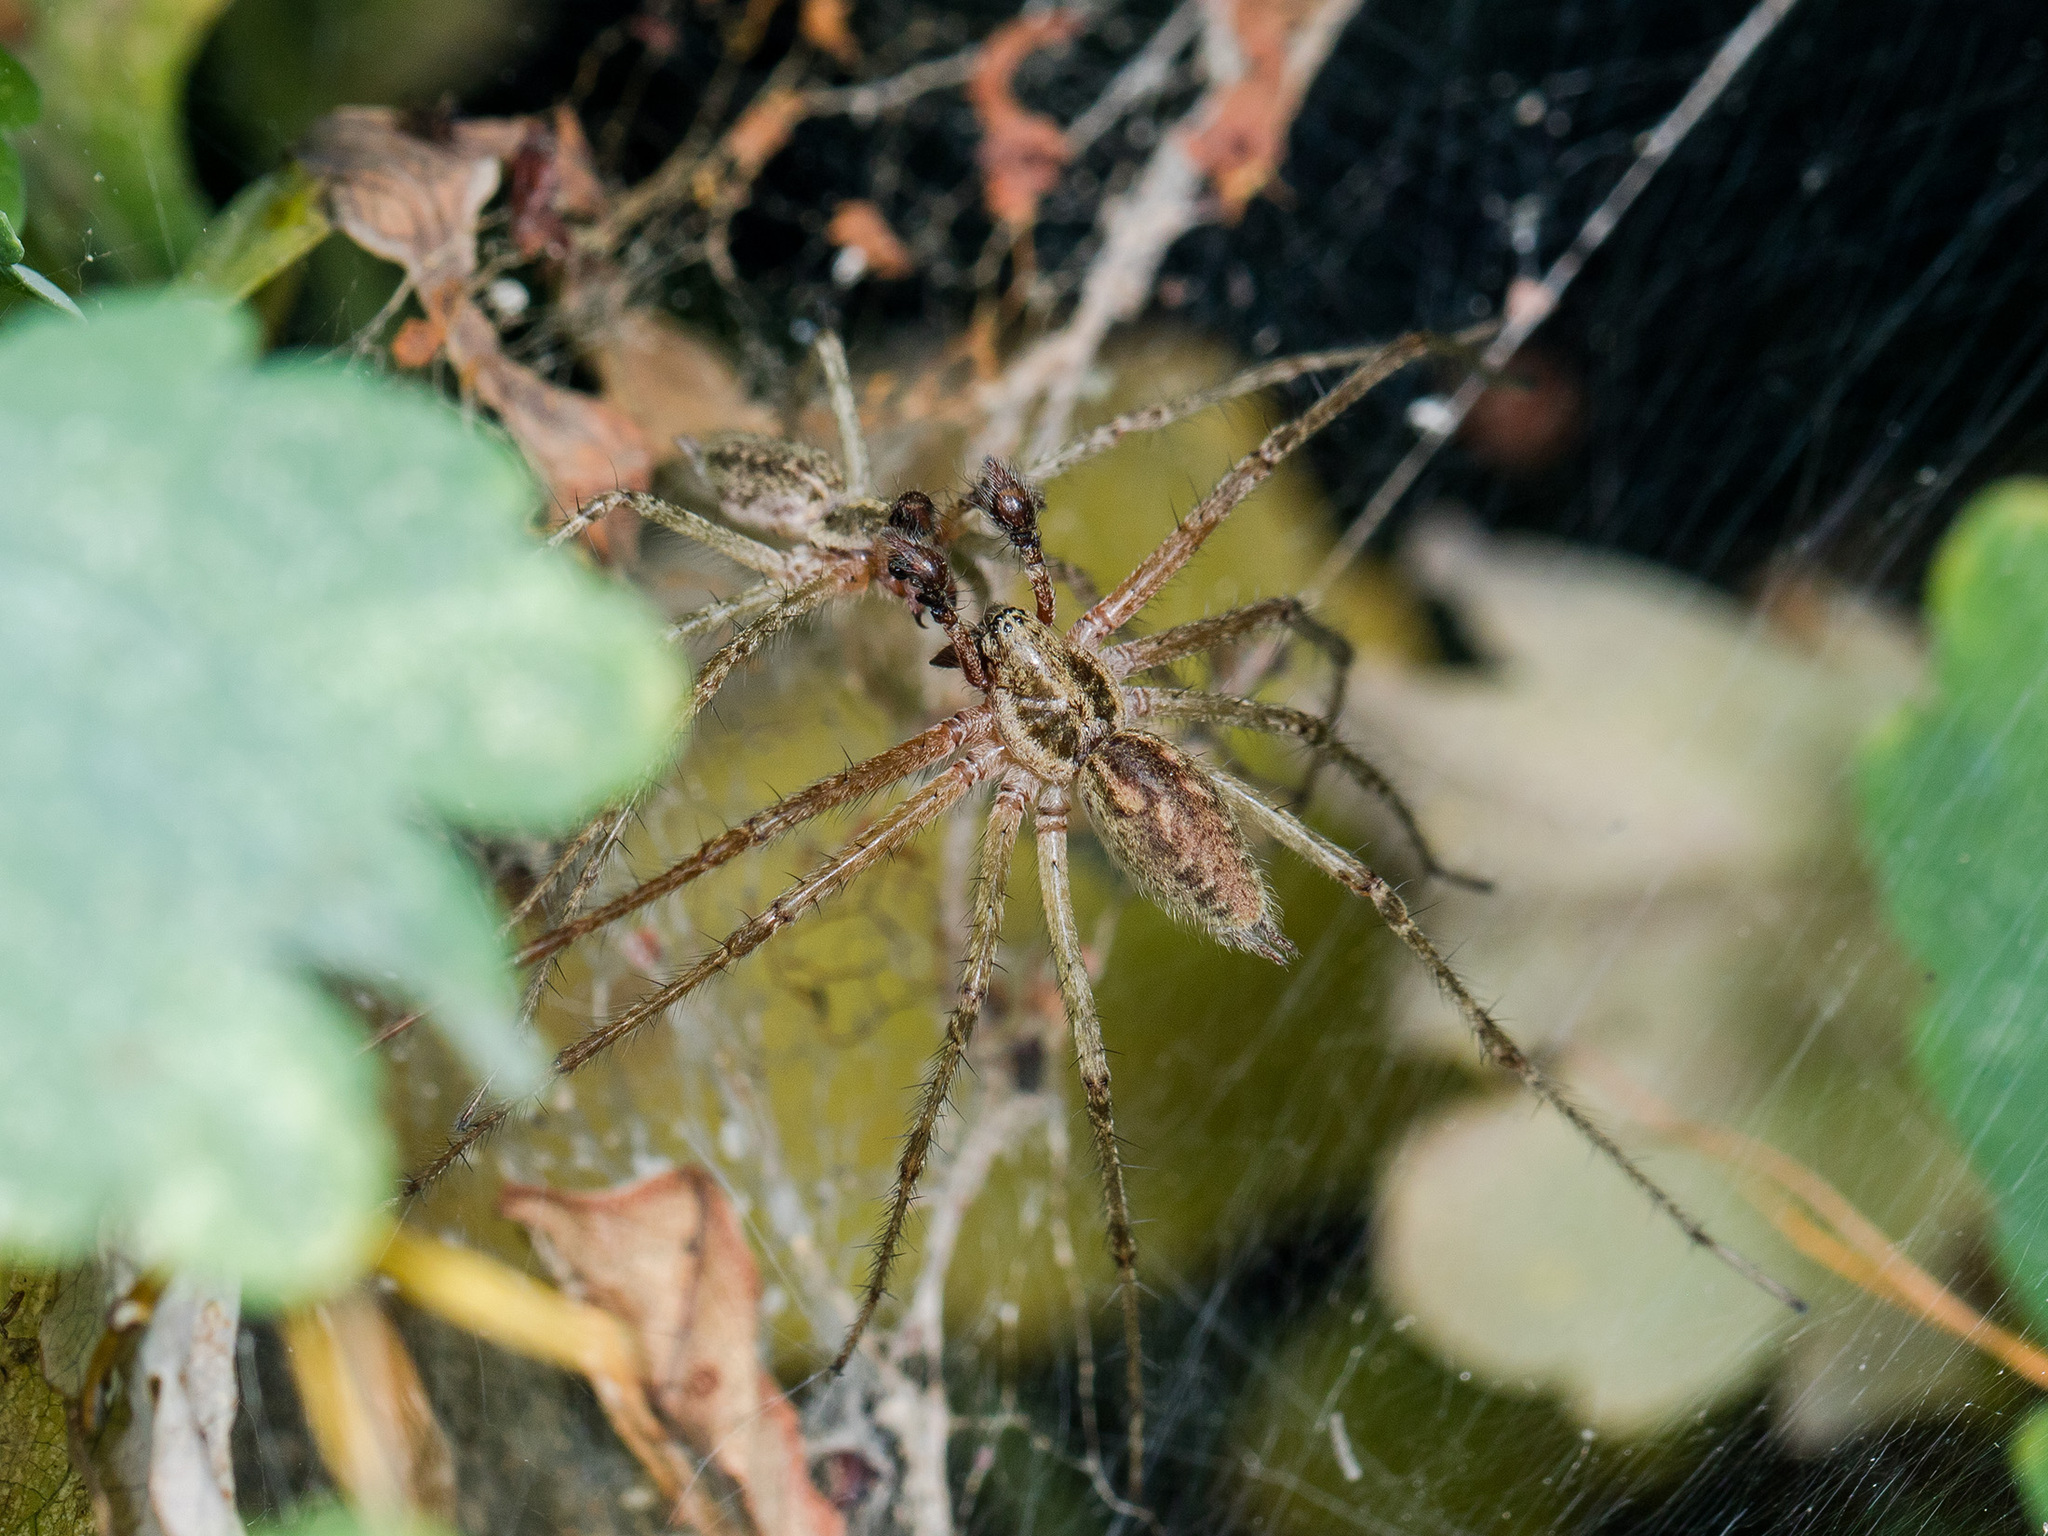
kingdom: Animalia
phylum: Arthropoda
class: Arachnida
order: Araneae
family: Agelenidae
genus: Allagelena
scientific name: Allagelena gracilens
